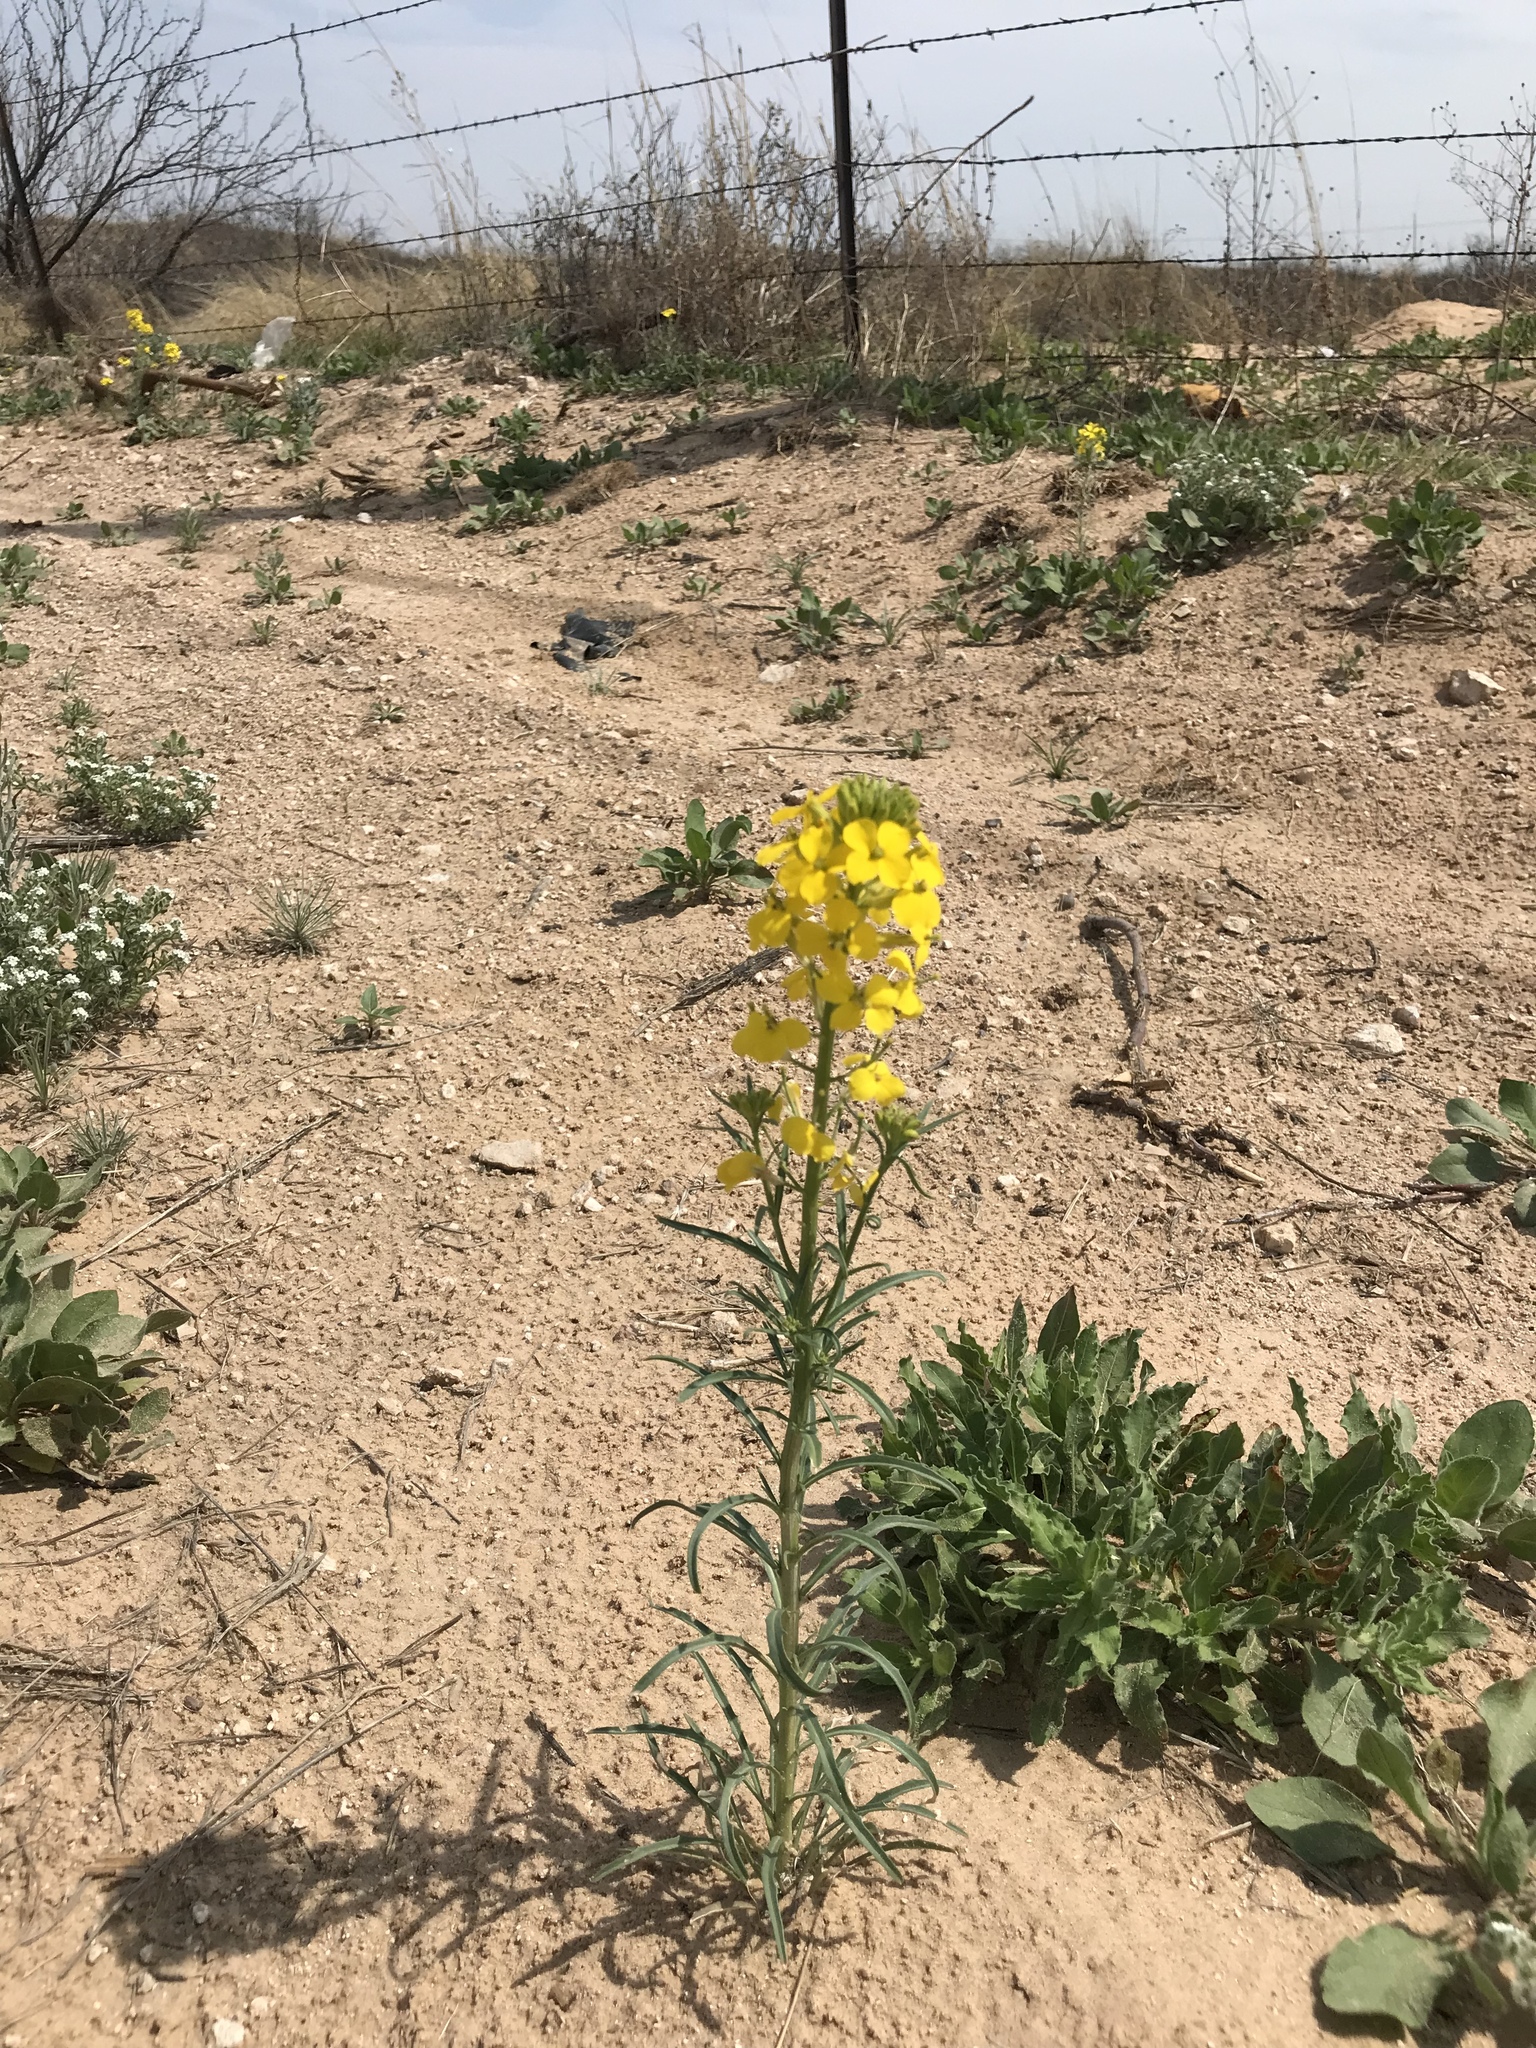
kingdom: Plantae
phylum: Tracheophyta
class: Magnoliopsida
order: Brassicales
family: Brassicaceae
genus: Erysimum
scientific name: Erysimum capitatum
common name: Western wallflower
